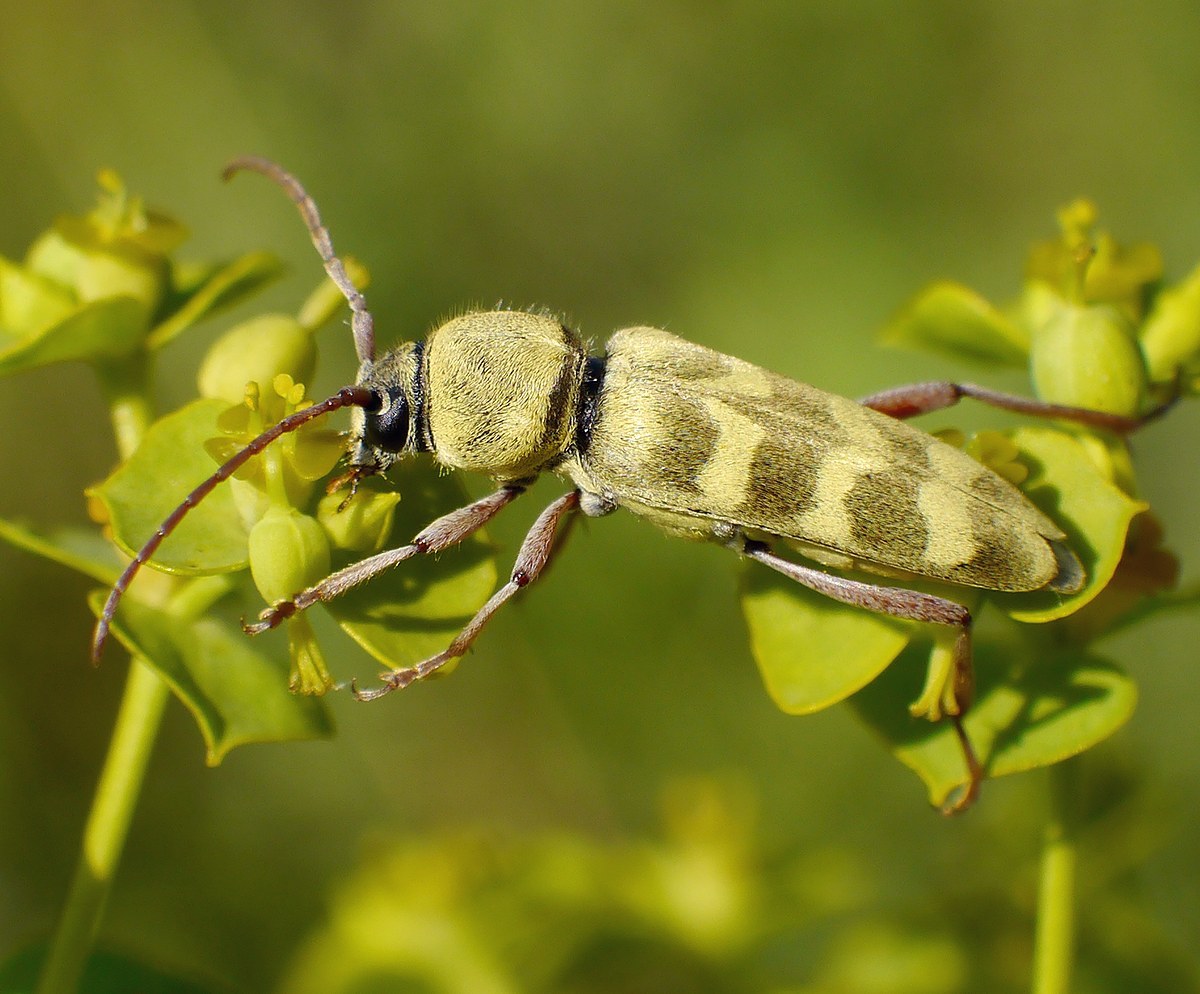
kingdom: Animalia
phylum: Arthropoda
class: Insecta
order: Coleoptera
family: Cerambycidae
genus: Plagionotus
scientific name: Plagionotus floralis
